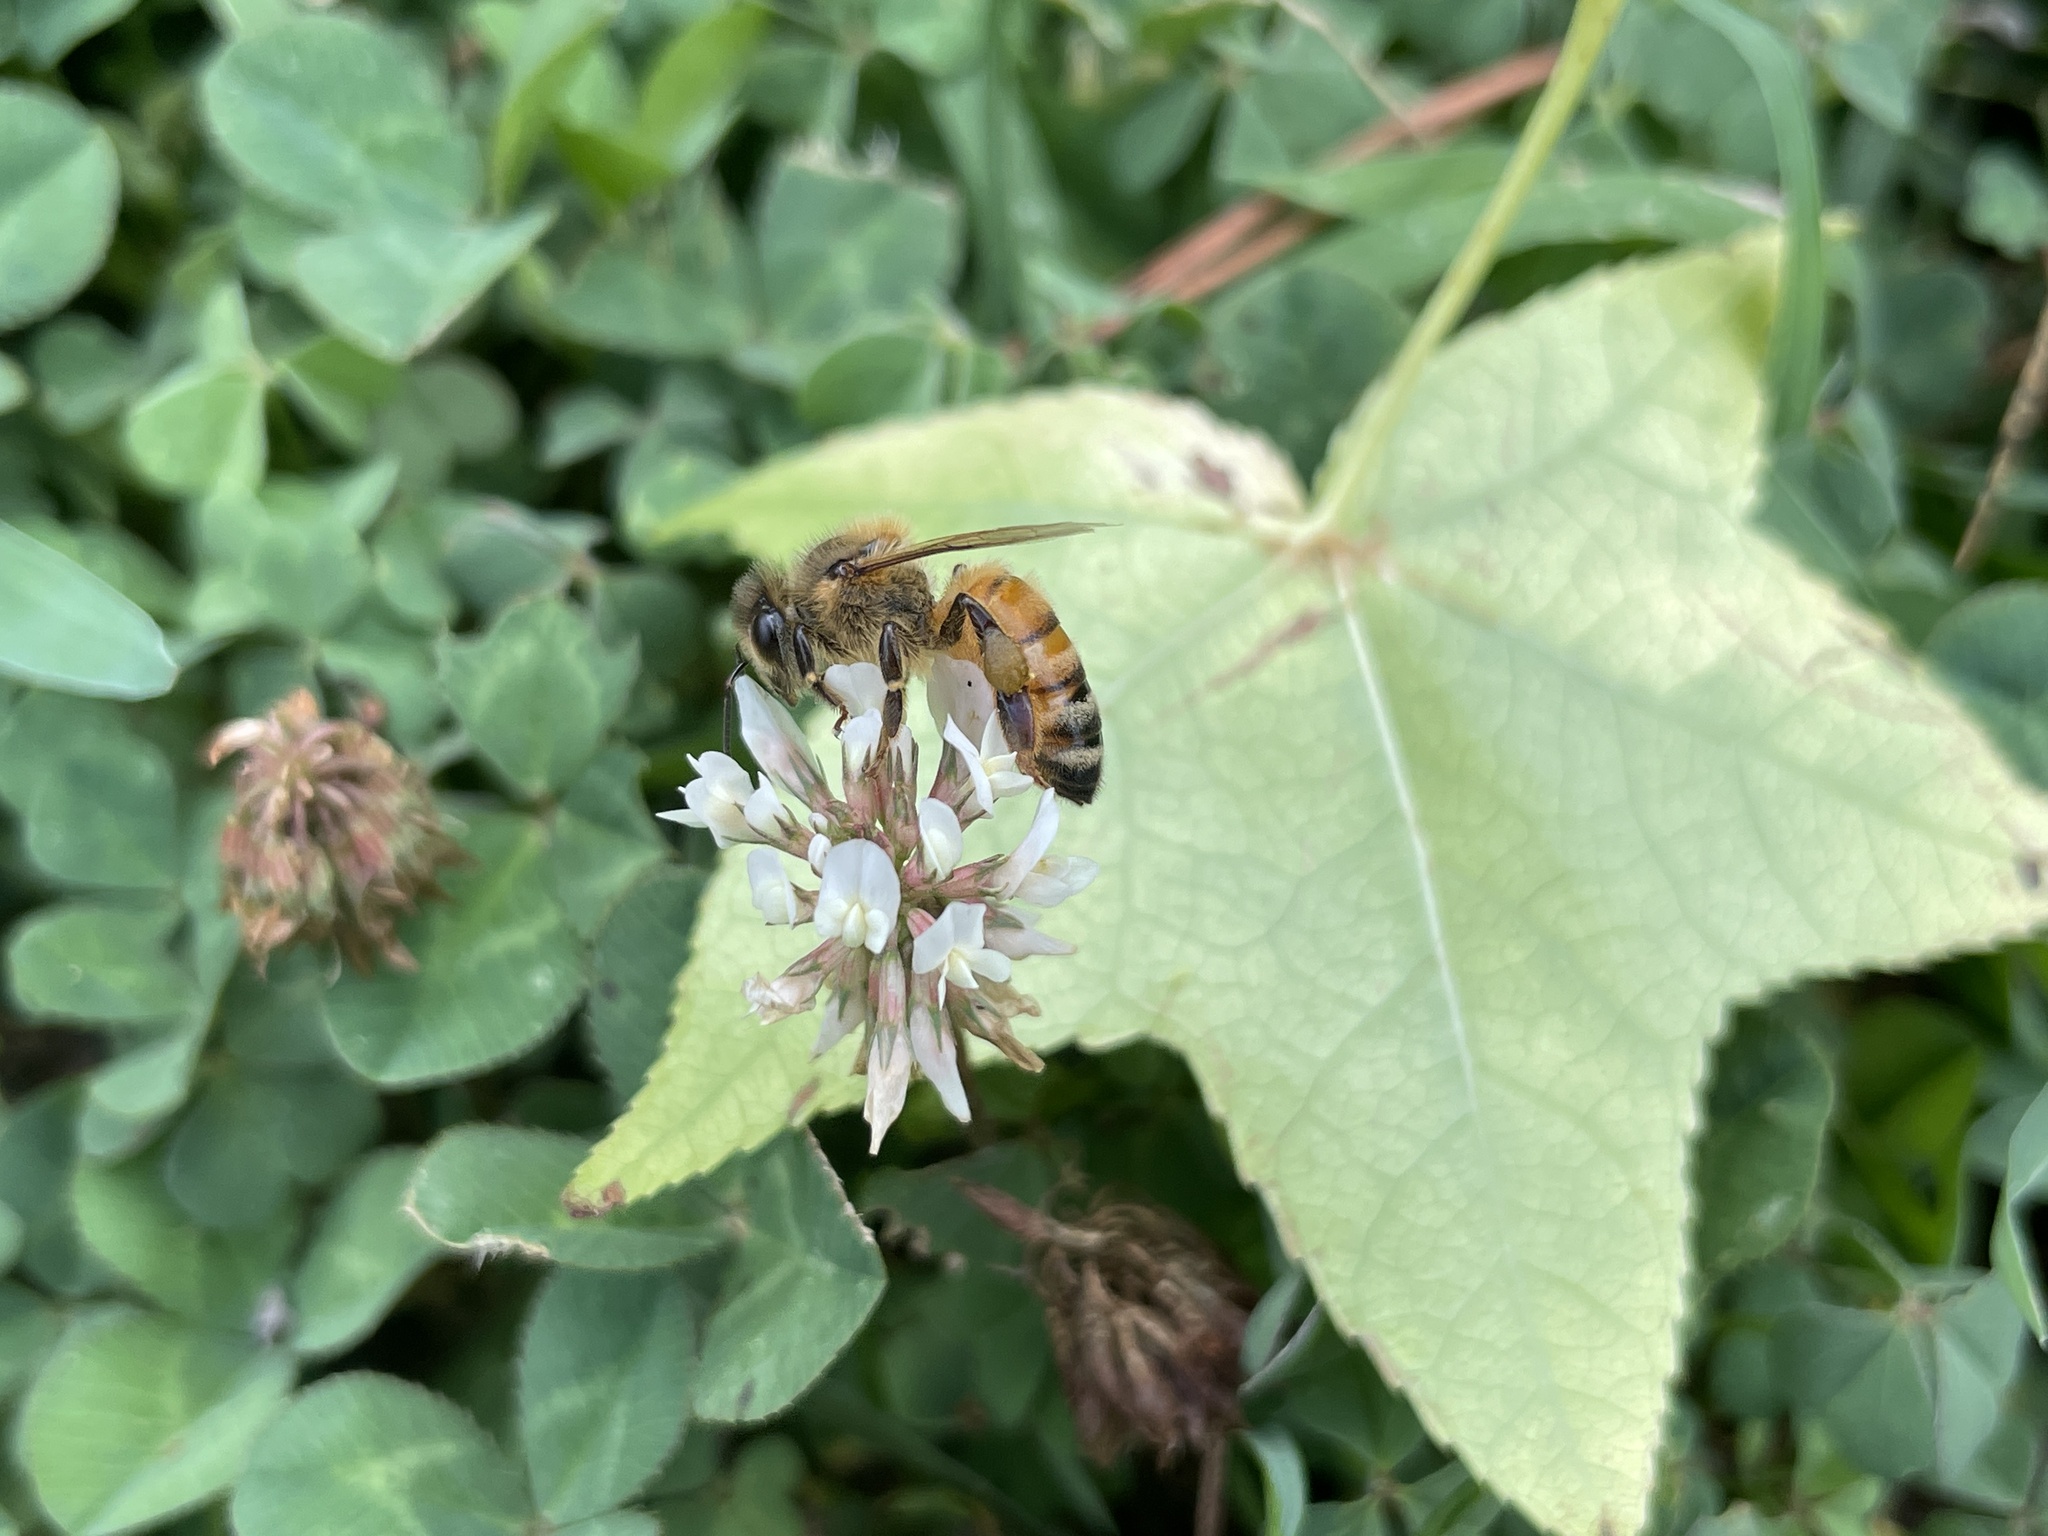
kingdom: Animalia
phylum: Arthropoda
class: Insecta
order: Hymenoptera
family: Apidae
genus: Apis
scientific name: Apis mellifera
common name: Honey bee
